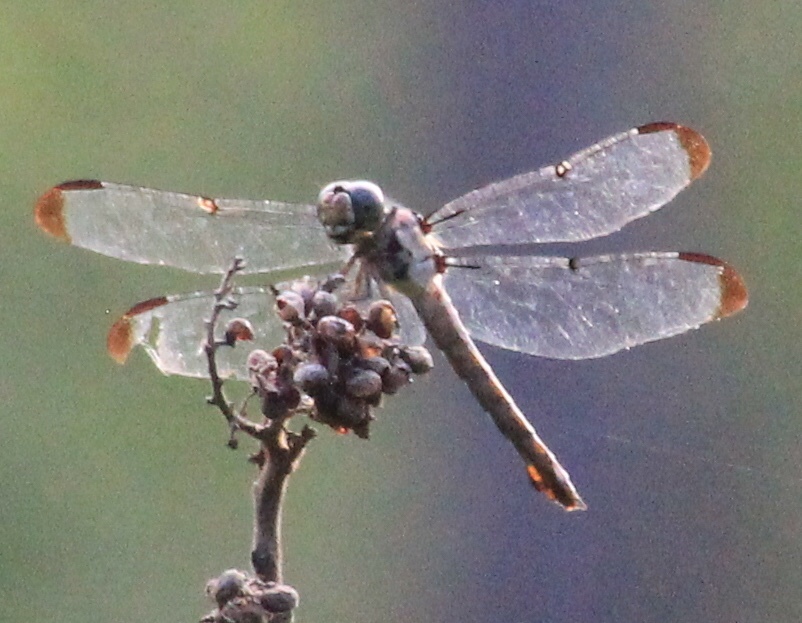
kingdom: Animalia
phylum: Arthropoda
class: Insecta
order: Odonata
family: Libellulidae
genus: Libellula
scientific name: Libellula vibrans
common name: Great blue skimmer
